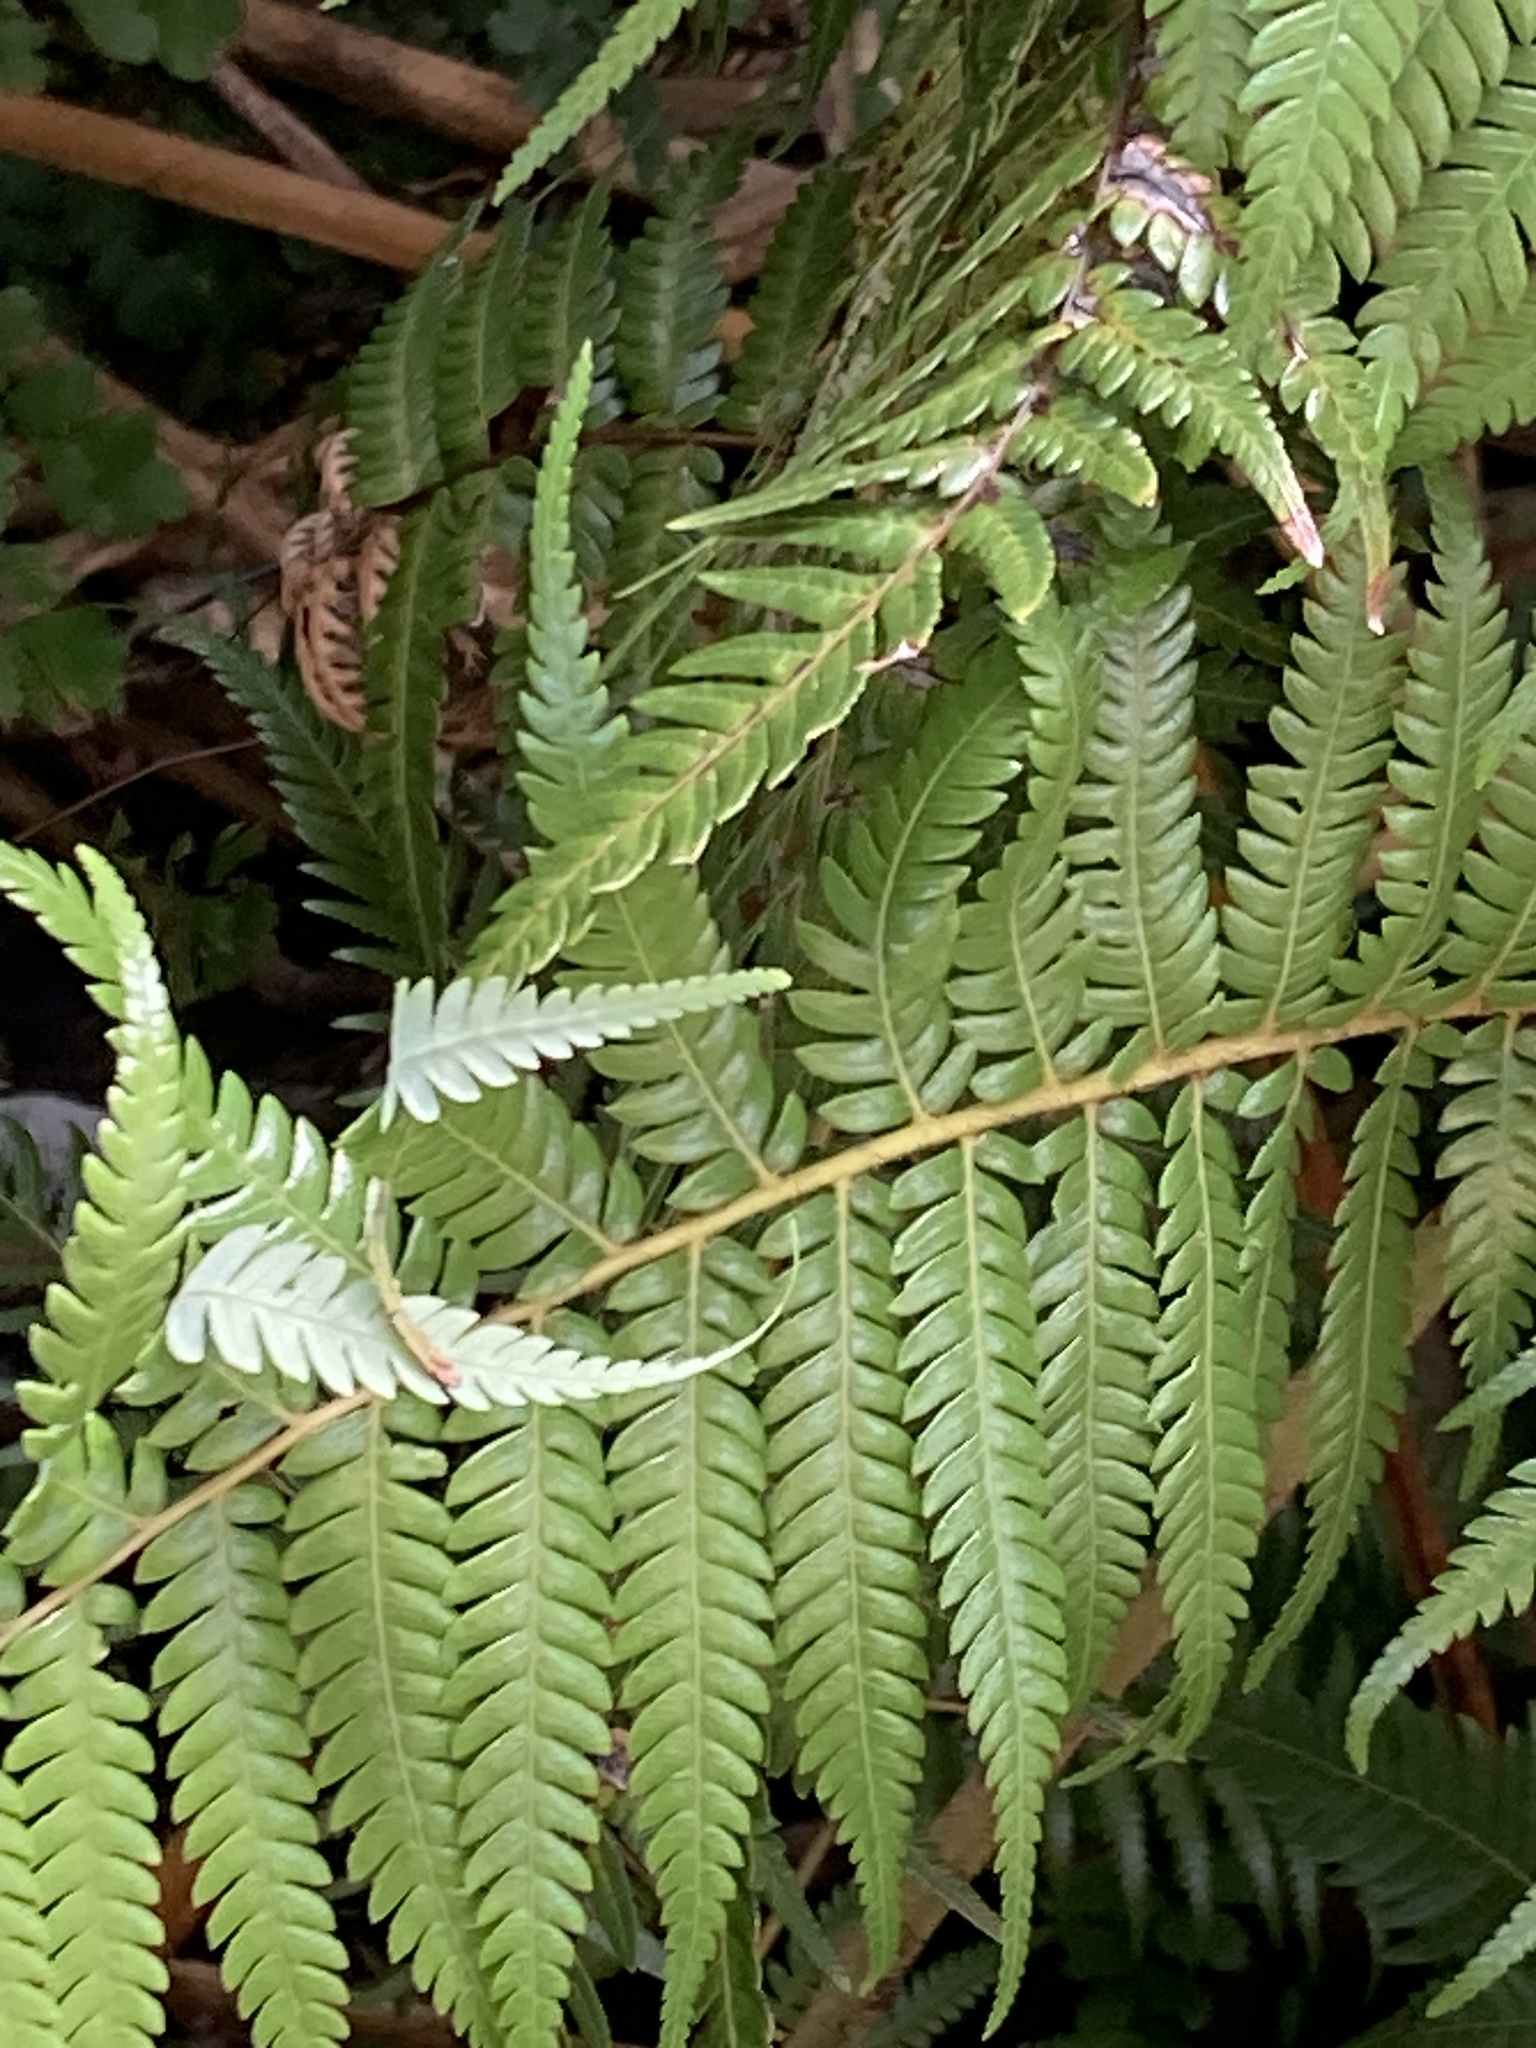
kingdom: Plantae
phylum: Tracheophyta
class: Polypodiopsida
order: Cyatheales
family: Cyatheaceae
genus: Alsophila
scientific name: Alsophila dealbata
